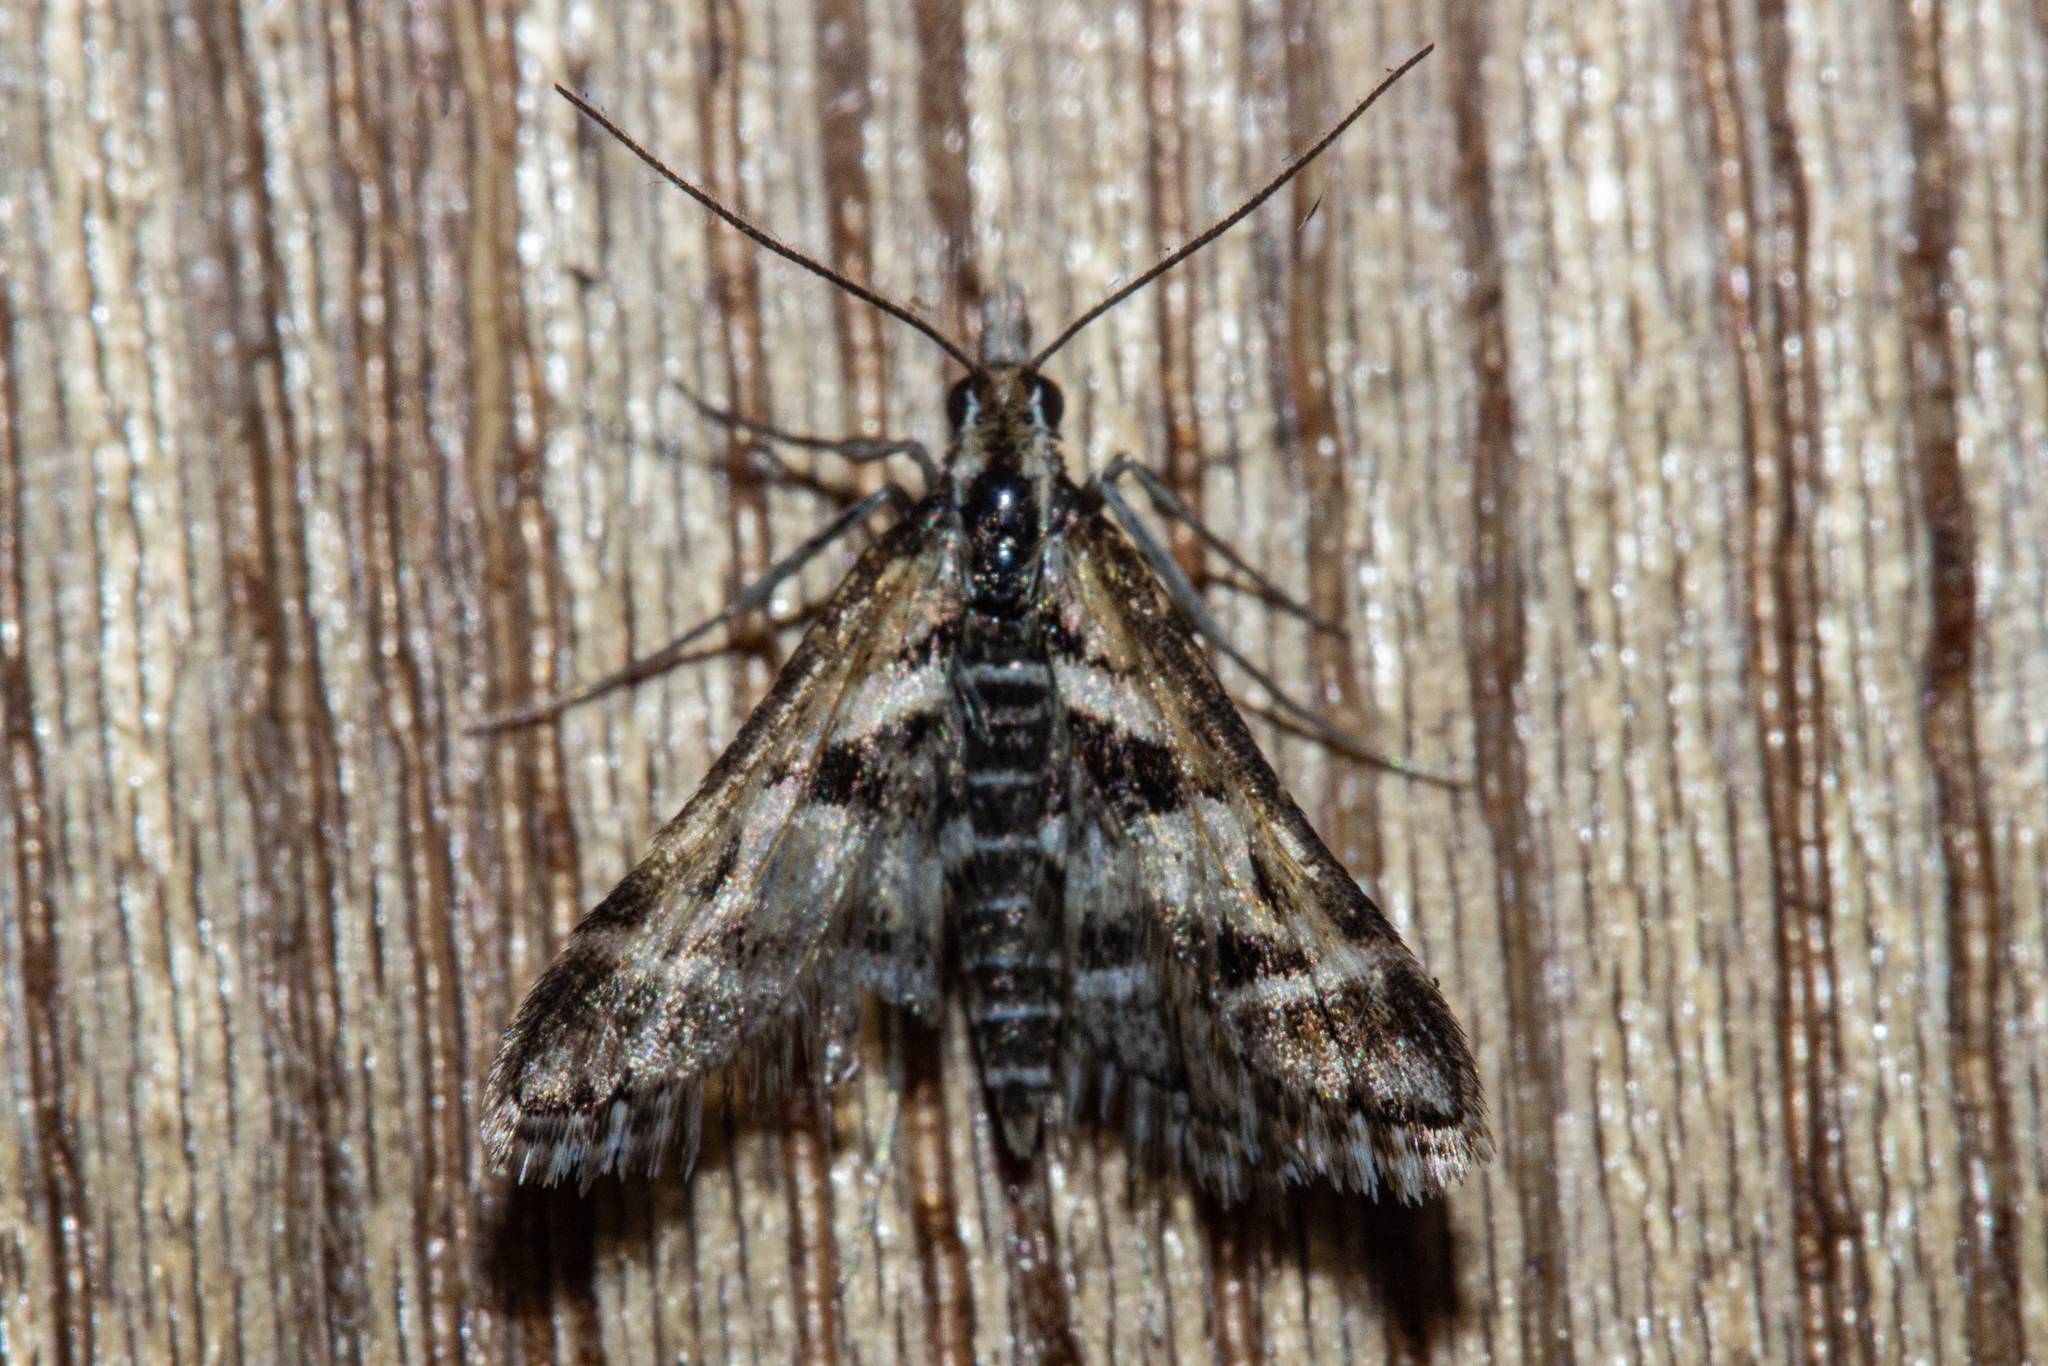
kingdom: Animalia
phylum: Arthropoda
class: Insecta
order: Lepidoptera
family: Crambidae
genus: Diasemia
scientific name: Diasemia grammalis
